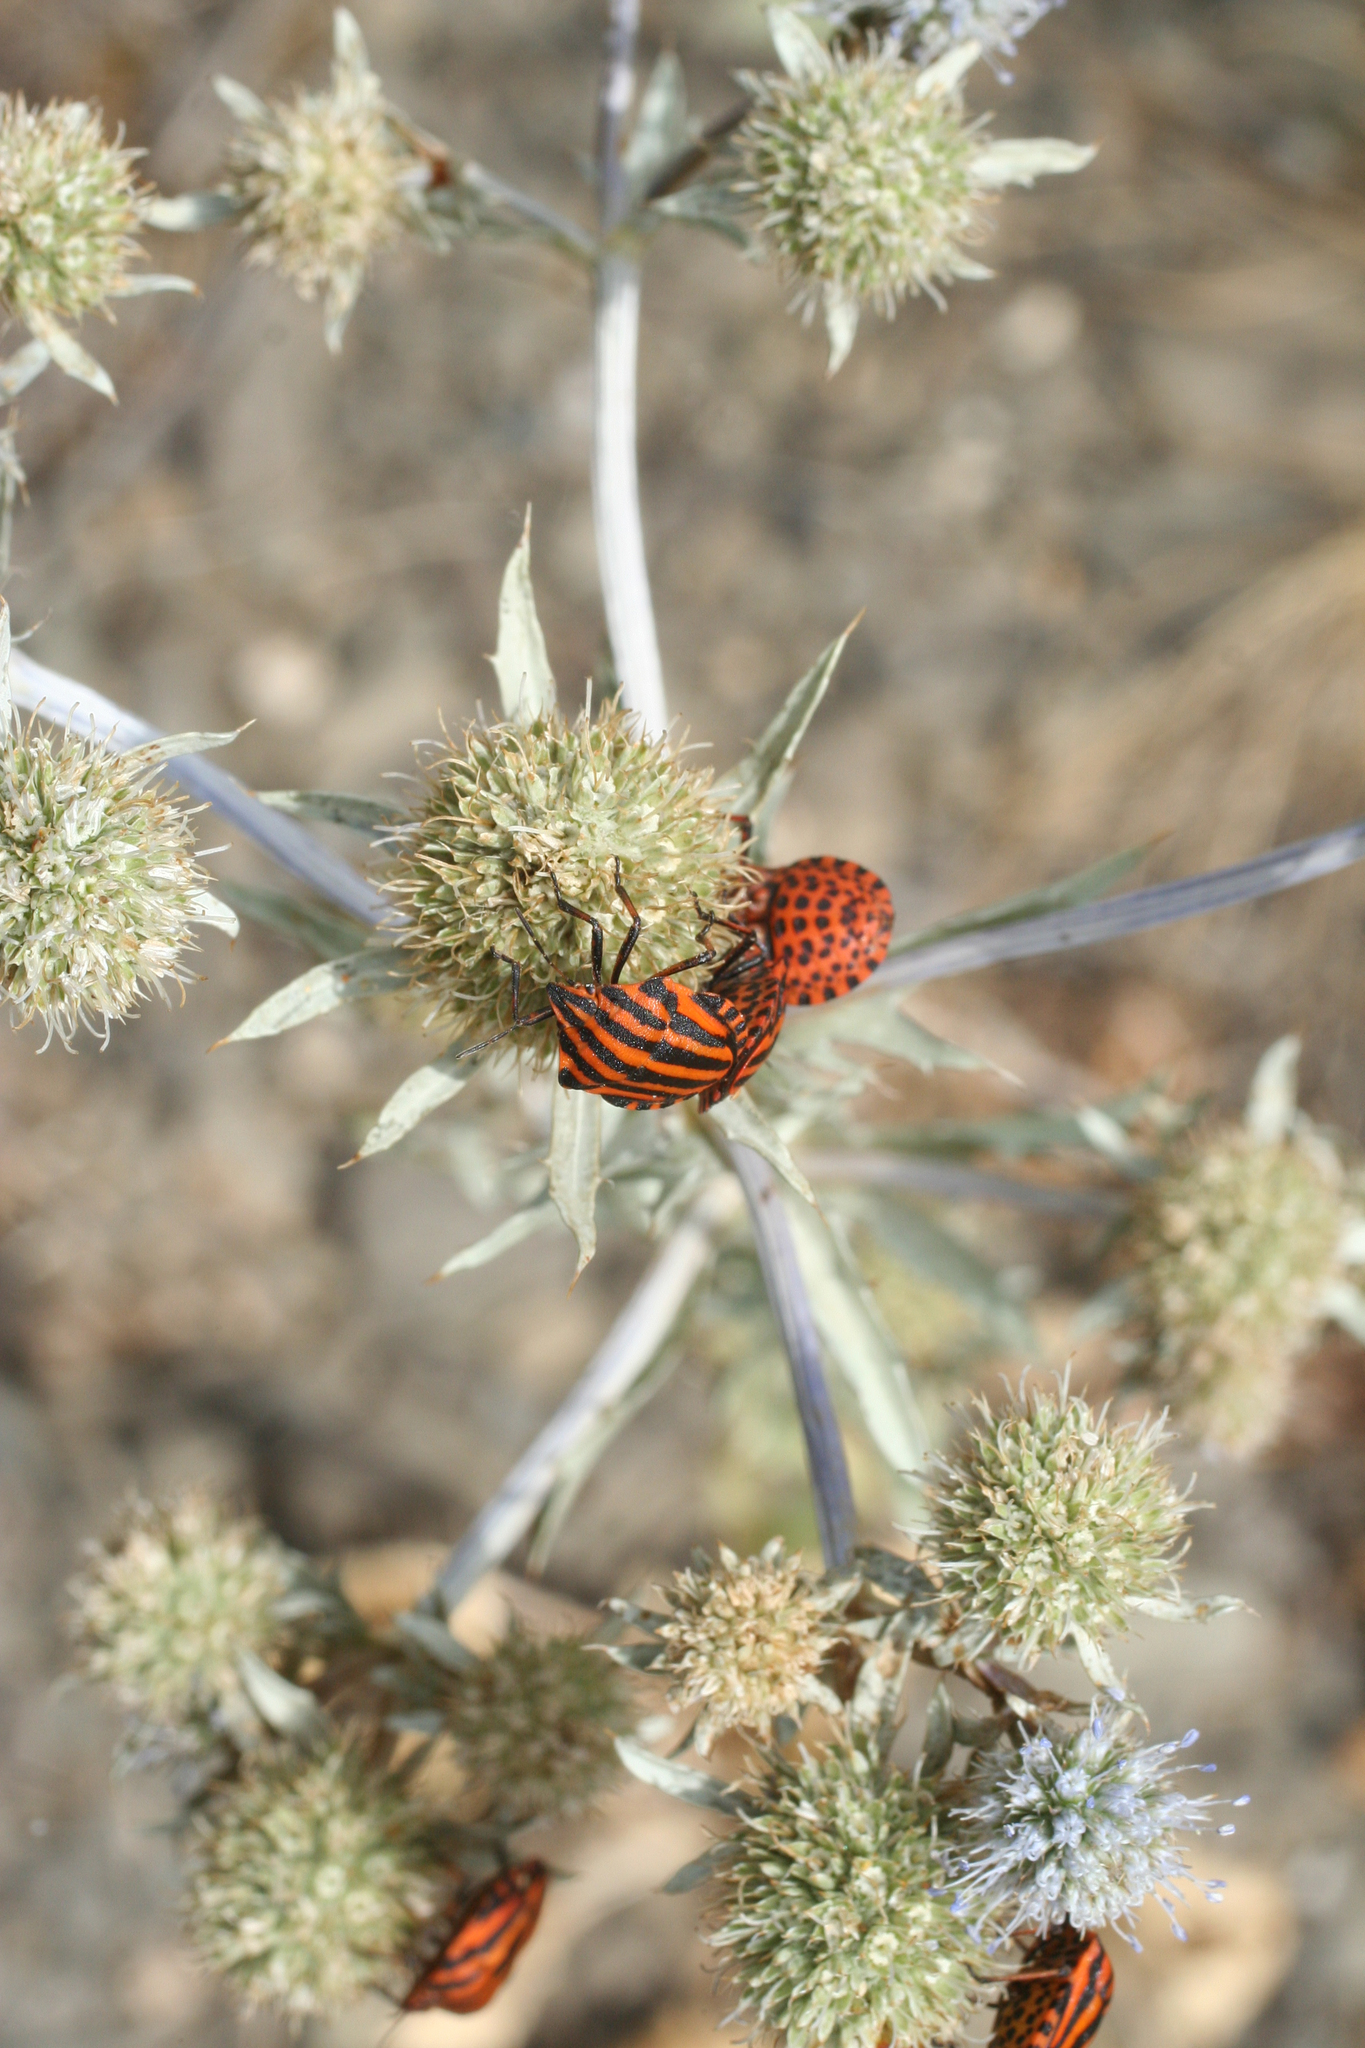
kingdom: Animalia
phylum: Arthropoda
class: Insecta
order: Hemiptera
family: Pentatomidae
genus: Graphosoma
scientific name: Graphosoma italicum
